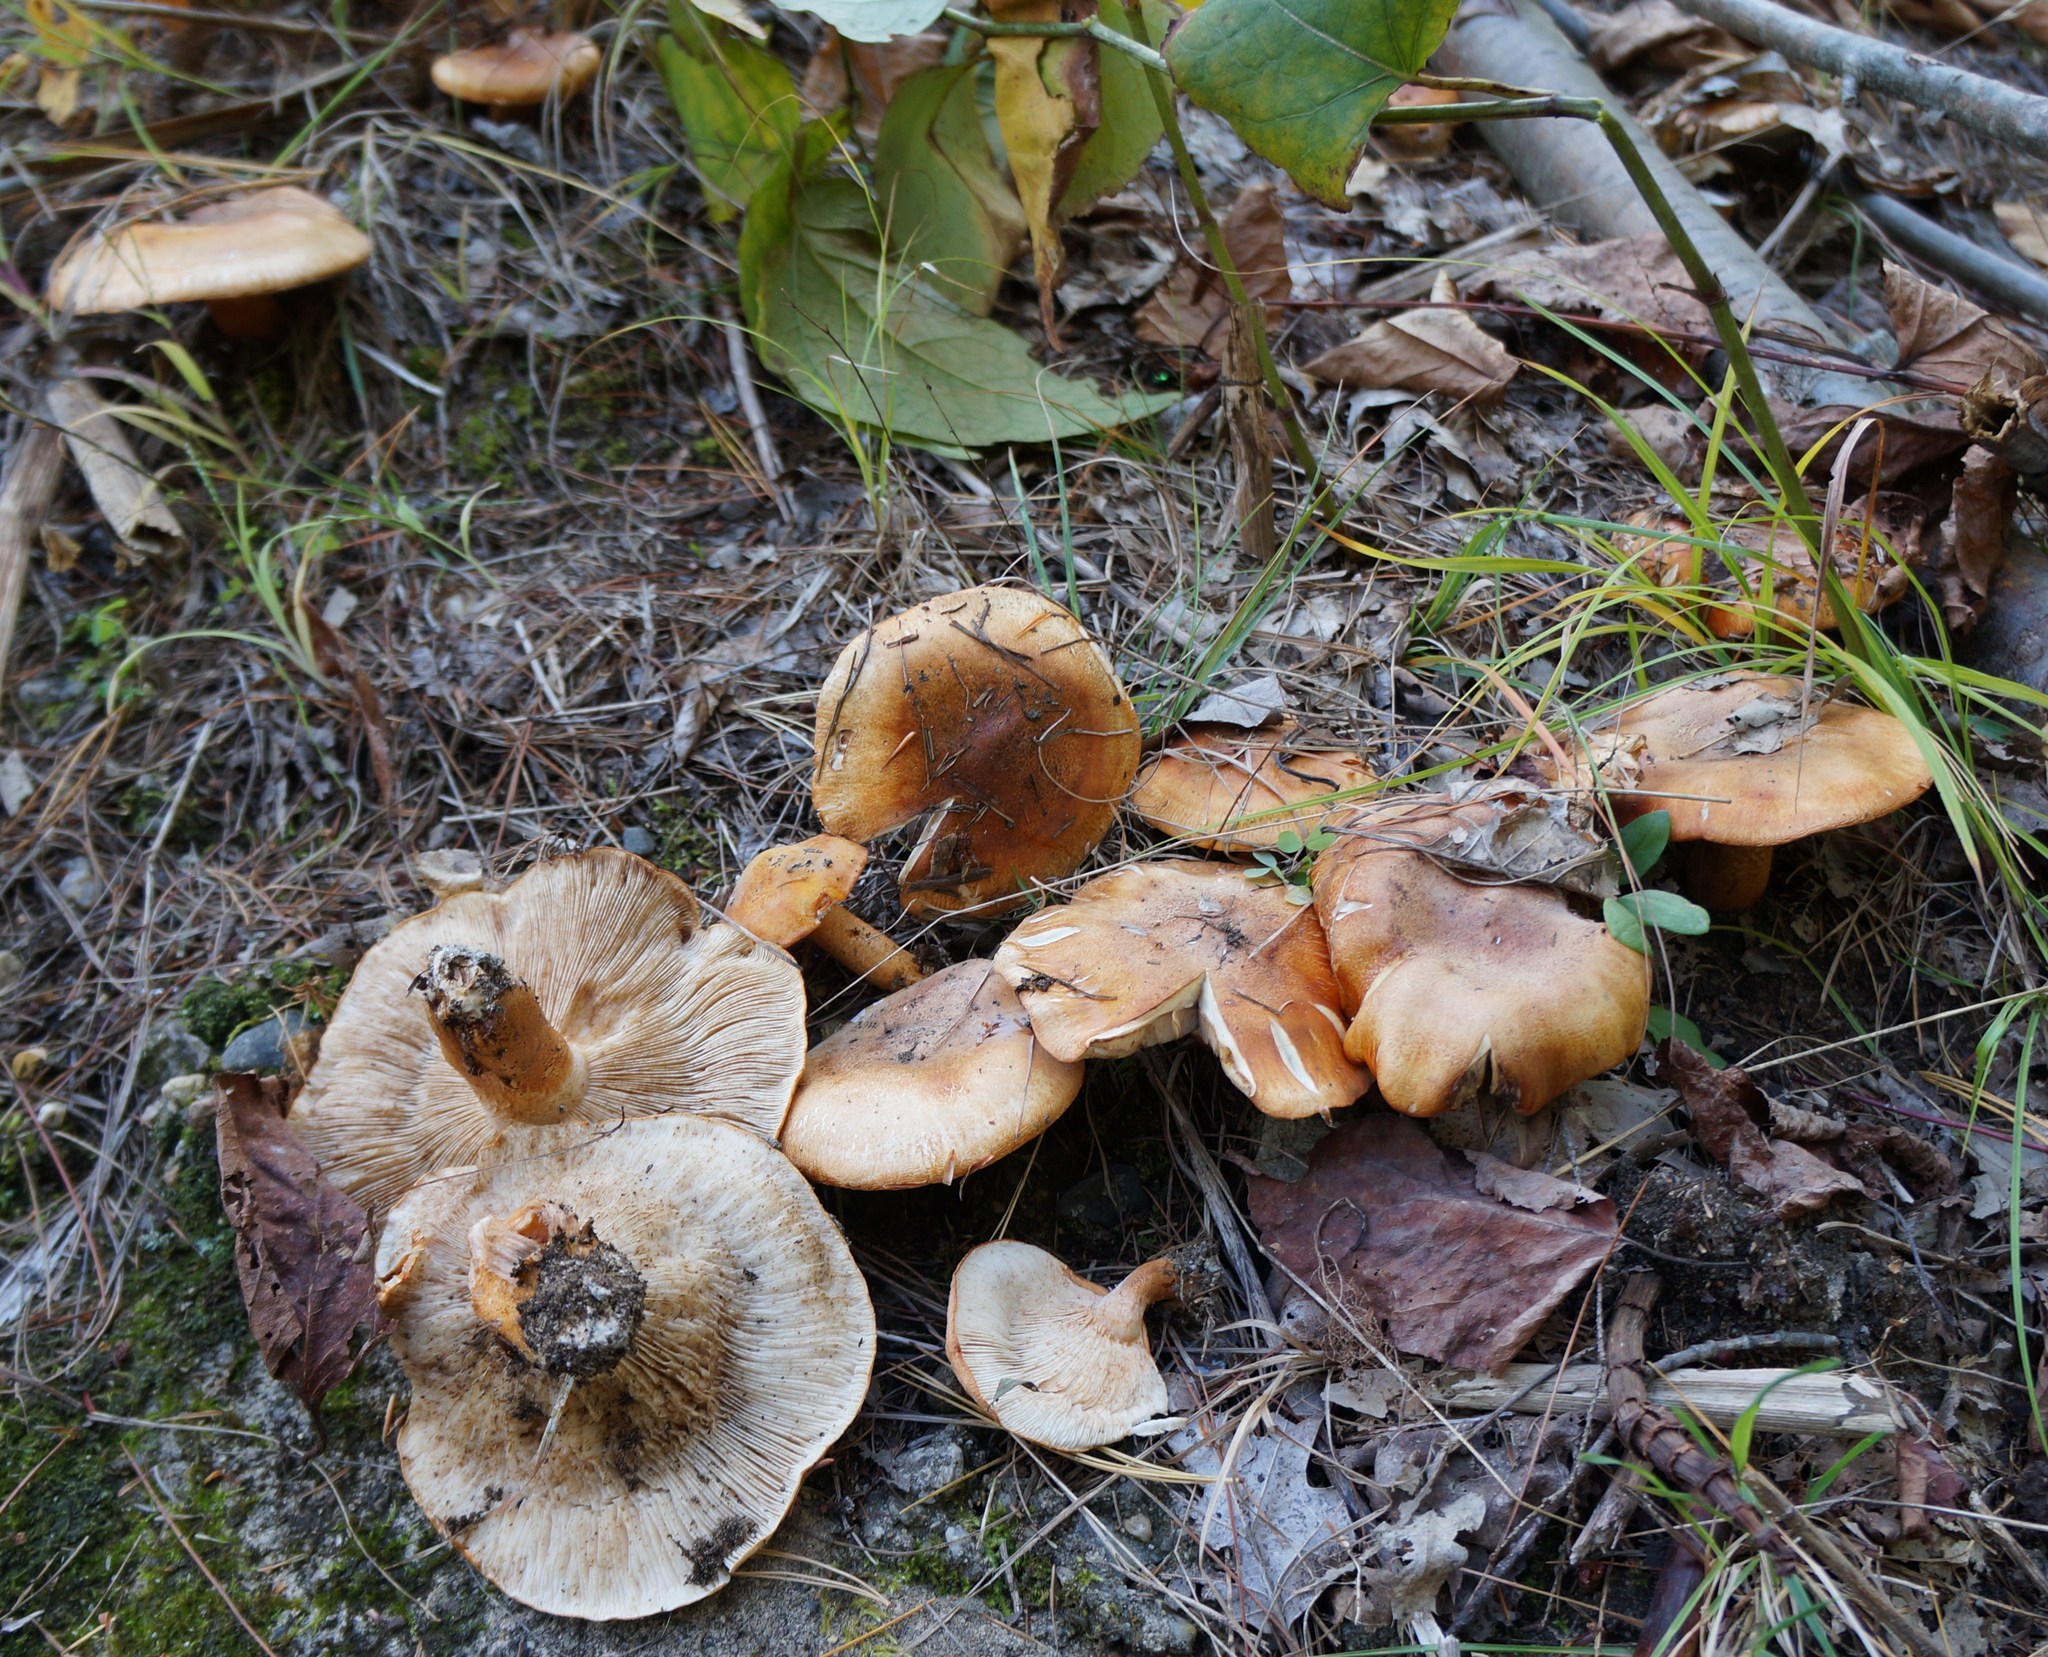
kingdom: Fungi
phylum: Basidiomycota
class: Agaricomycetes
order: Agaricales
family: Tricholomataceae
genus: Tricholoma
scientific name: Tricholoma aurantium
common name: Orange knight
